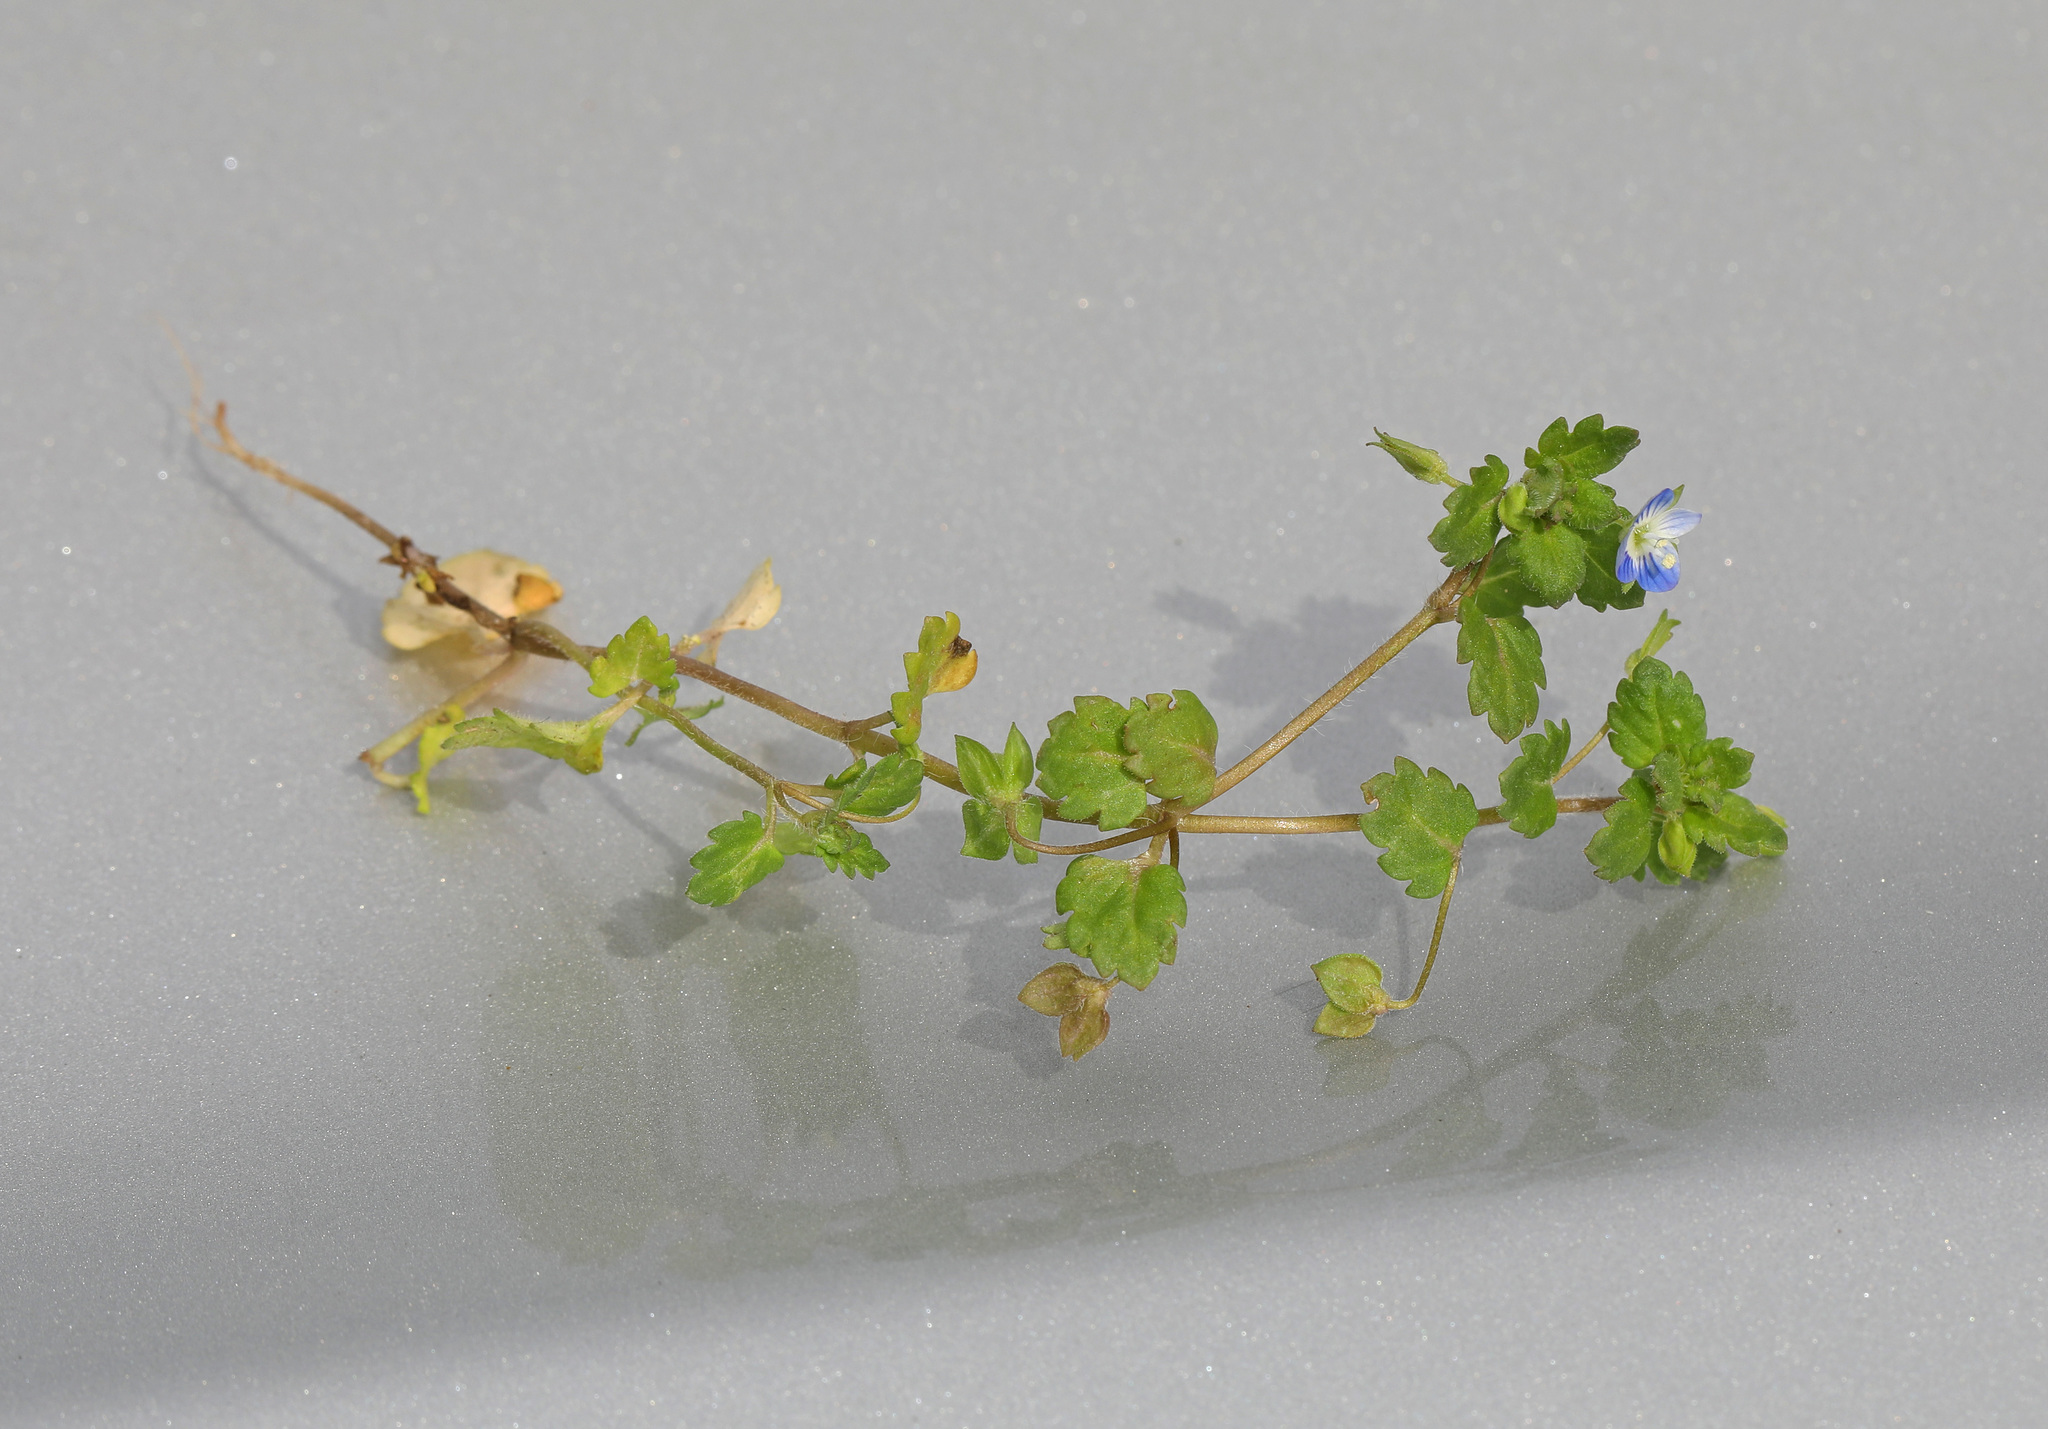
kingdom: Plantae
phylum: Tracheophyta
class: Magnoliopsida
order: Lamiales
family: Plantaginaceae
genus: Veronica
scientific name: Veronica polita
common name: Grey field-speedwell
